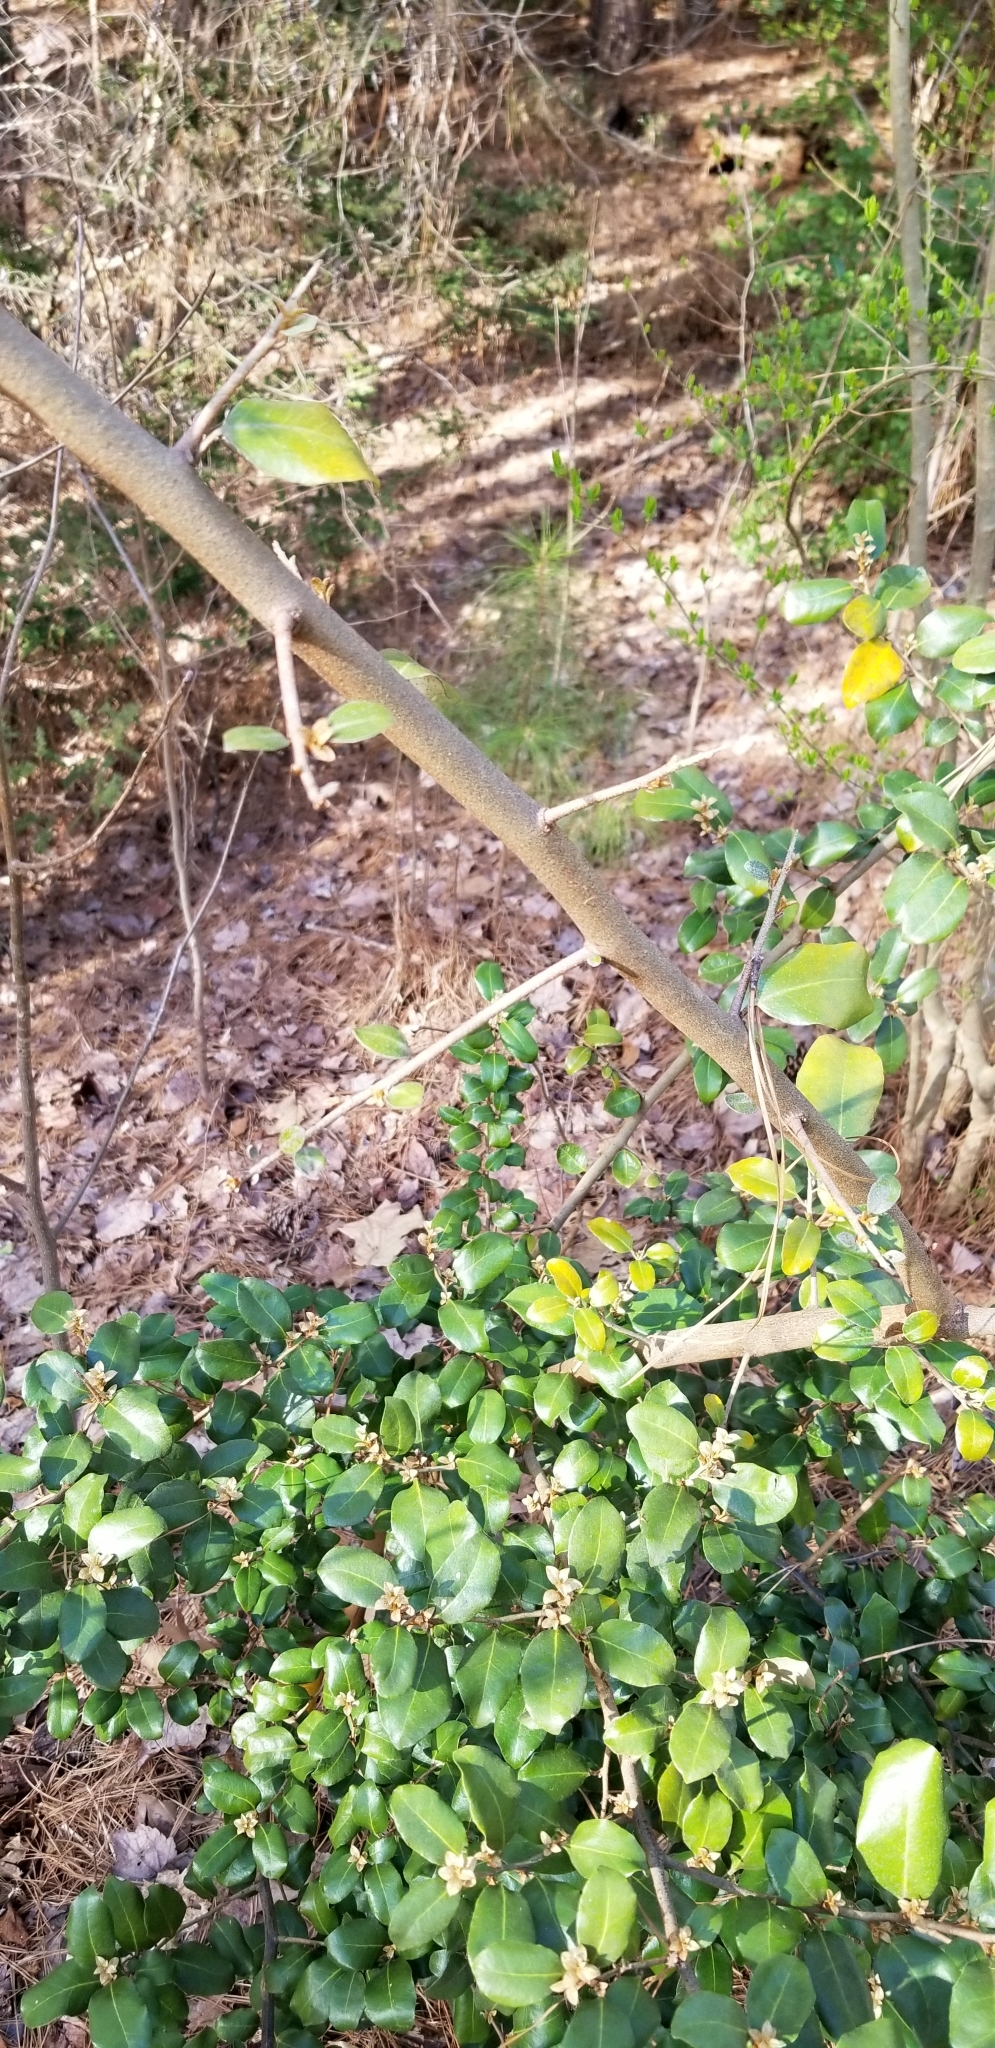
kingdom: Plantae
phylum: Tracheophyta
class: Magnoliopsida
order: Rosales
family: Elaeagnaceae
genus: Elaeagnus
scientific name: Elaeagnus pungens
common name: Spiny oleaster
